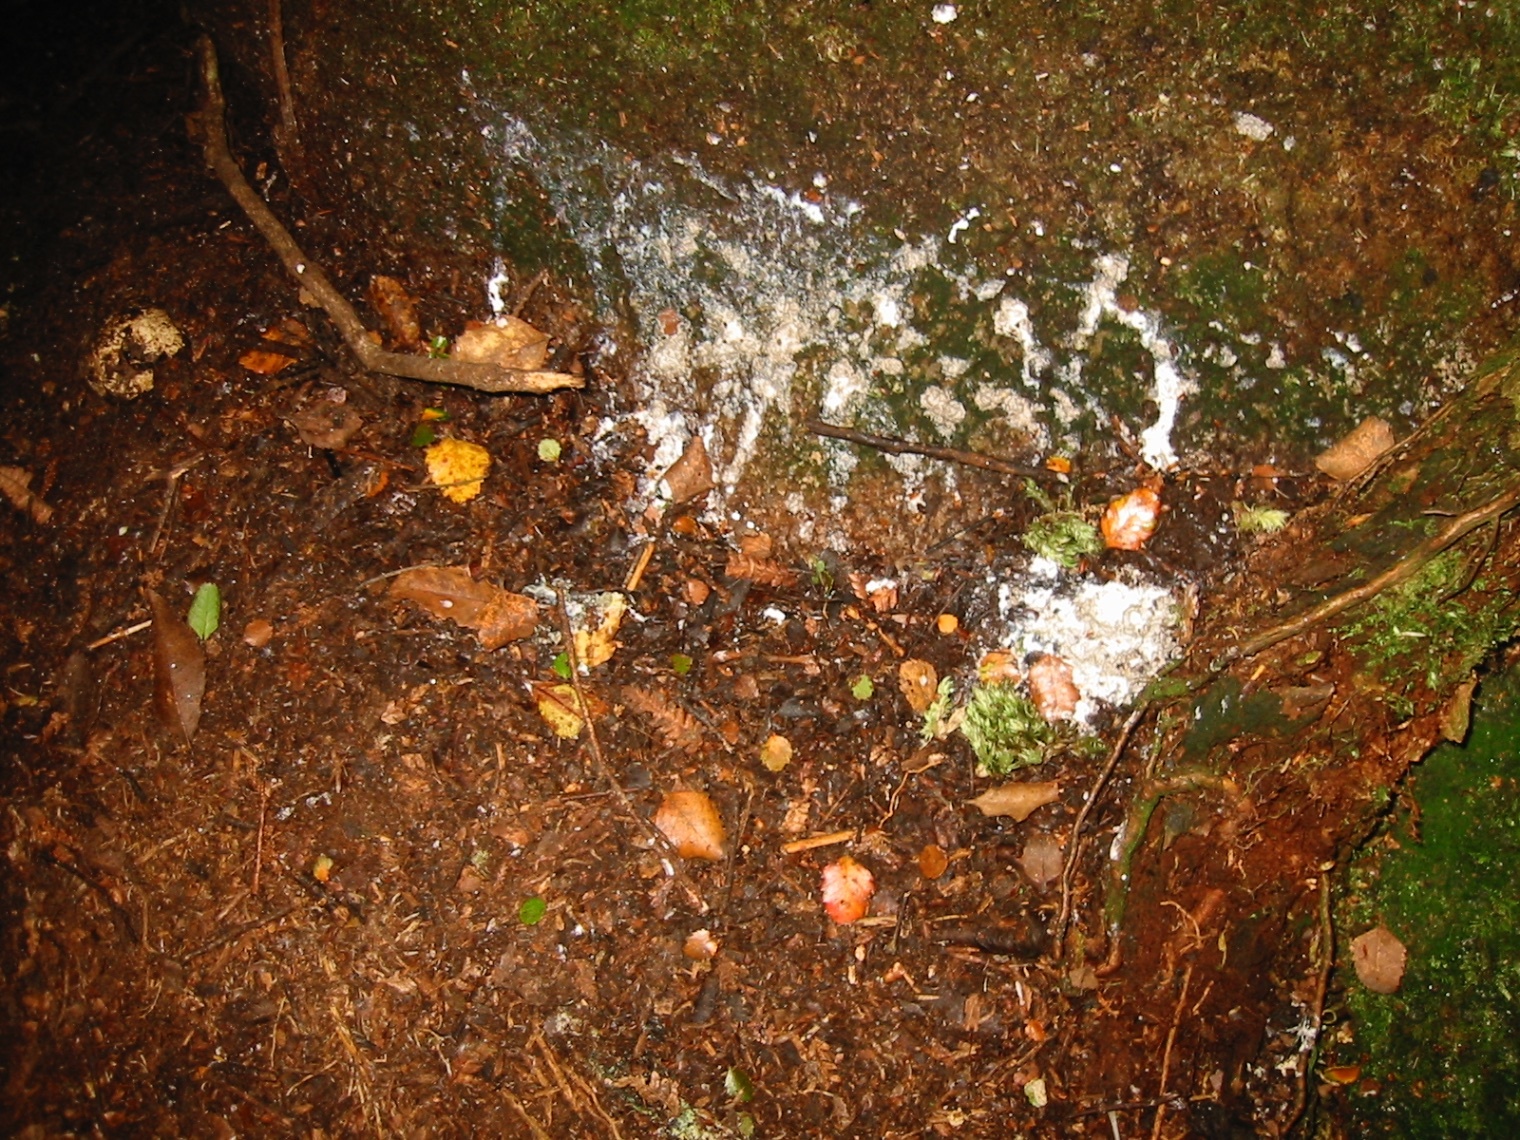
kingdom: Animalia
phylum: Chordata
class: Aves
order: Sphenisciformes
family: Spheniscidae
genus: Eudyptula
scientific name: Eudyptula minor
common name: Little penguin
